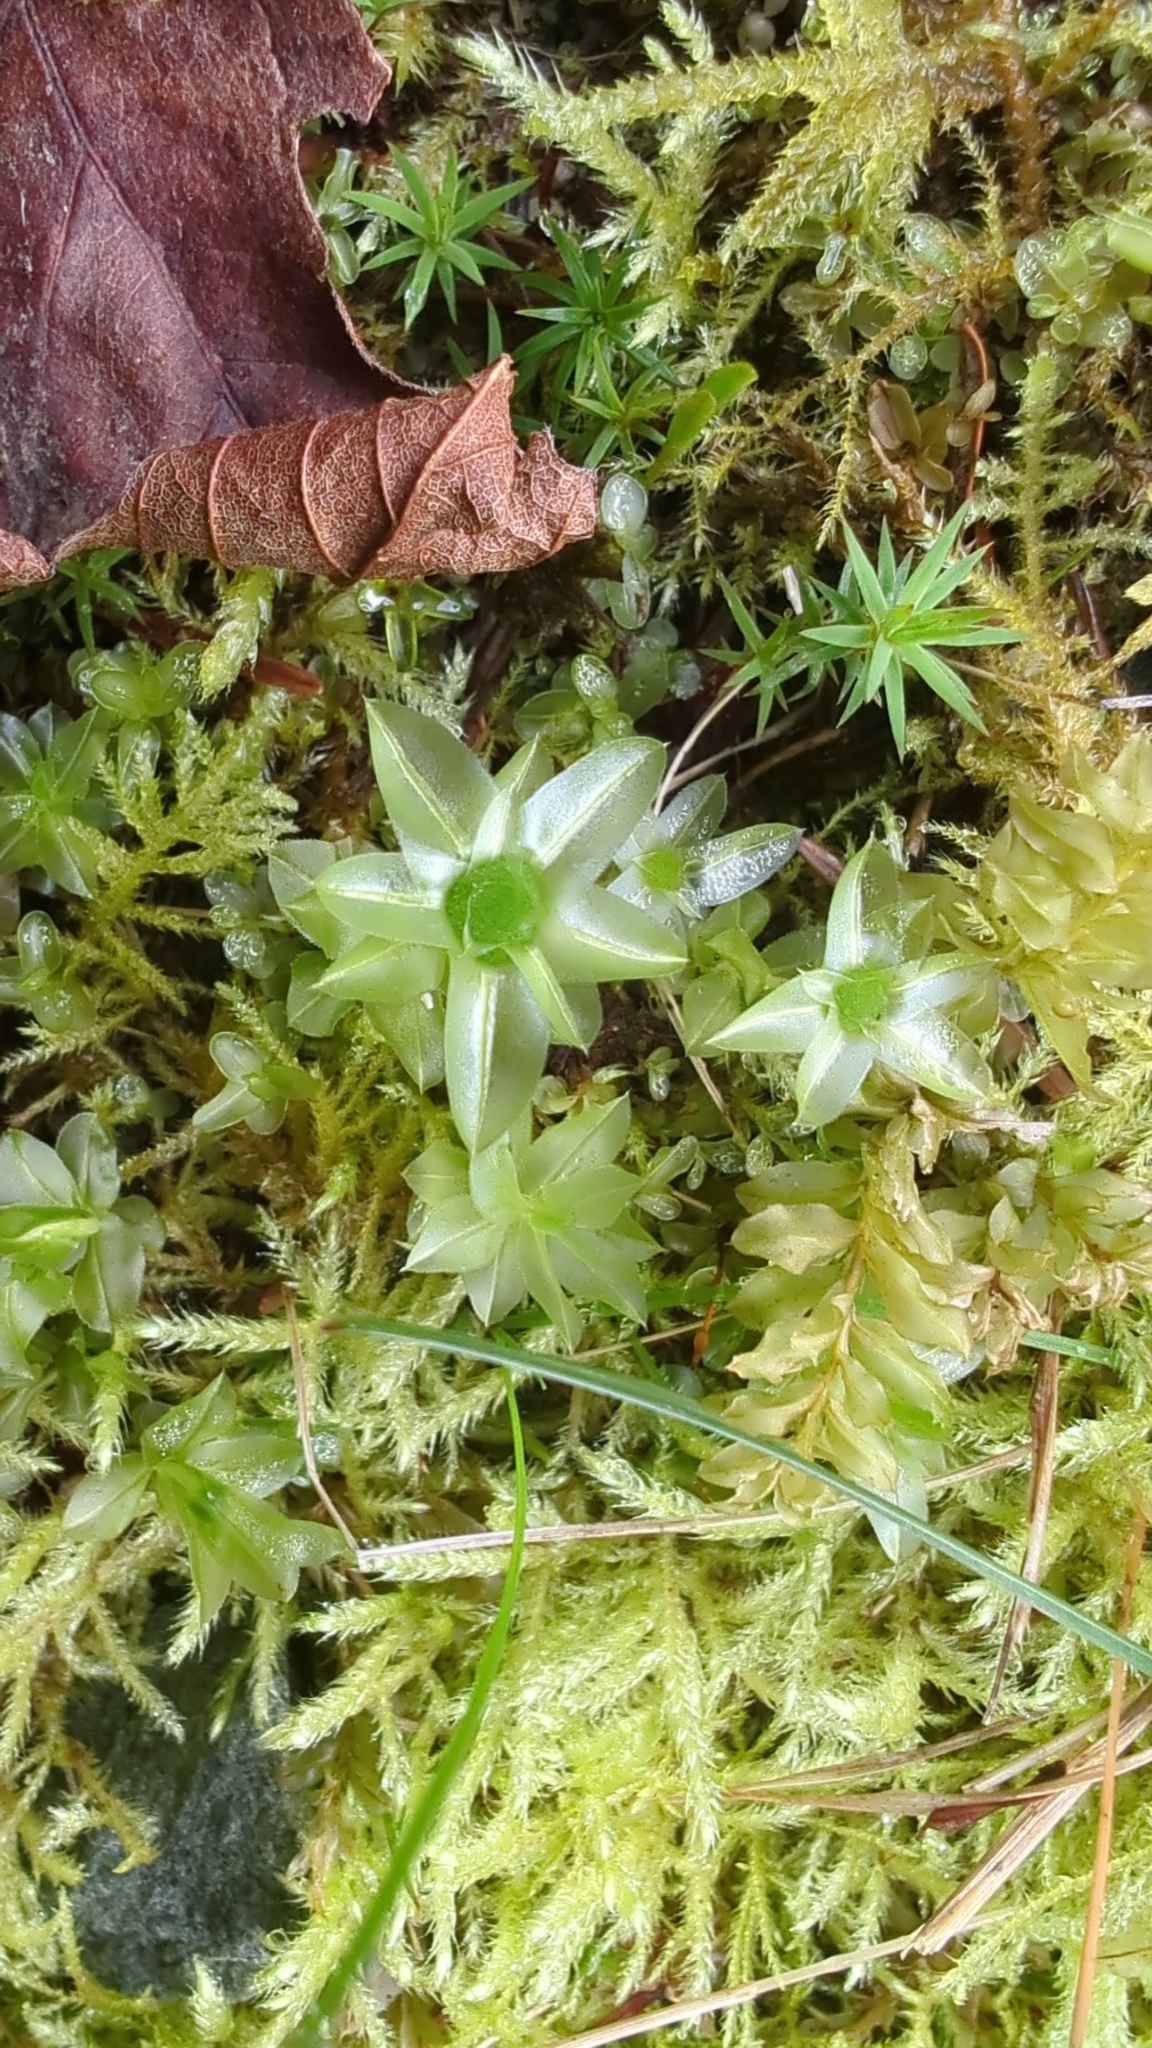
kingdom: Plantae
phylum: Bryophyta
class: Bryopsida
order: Bryales
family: Mniaceae
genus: Plagiomnium
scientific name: Plagiomnium insigne
